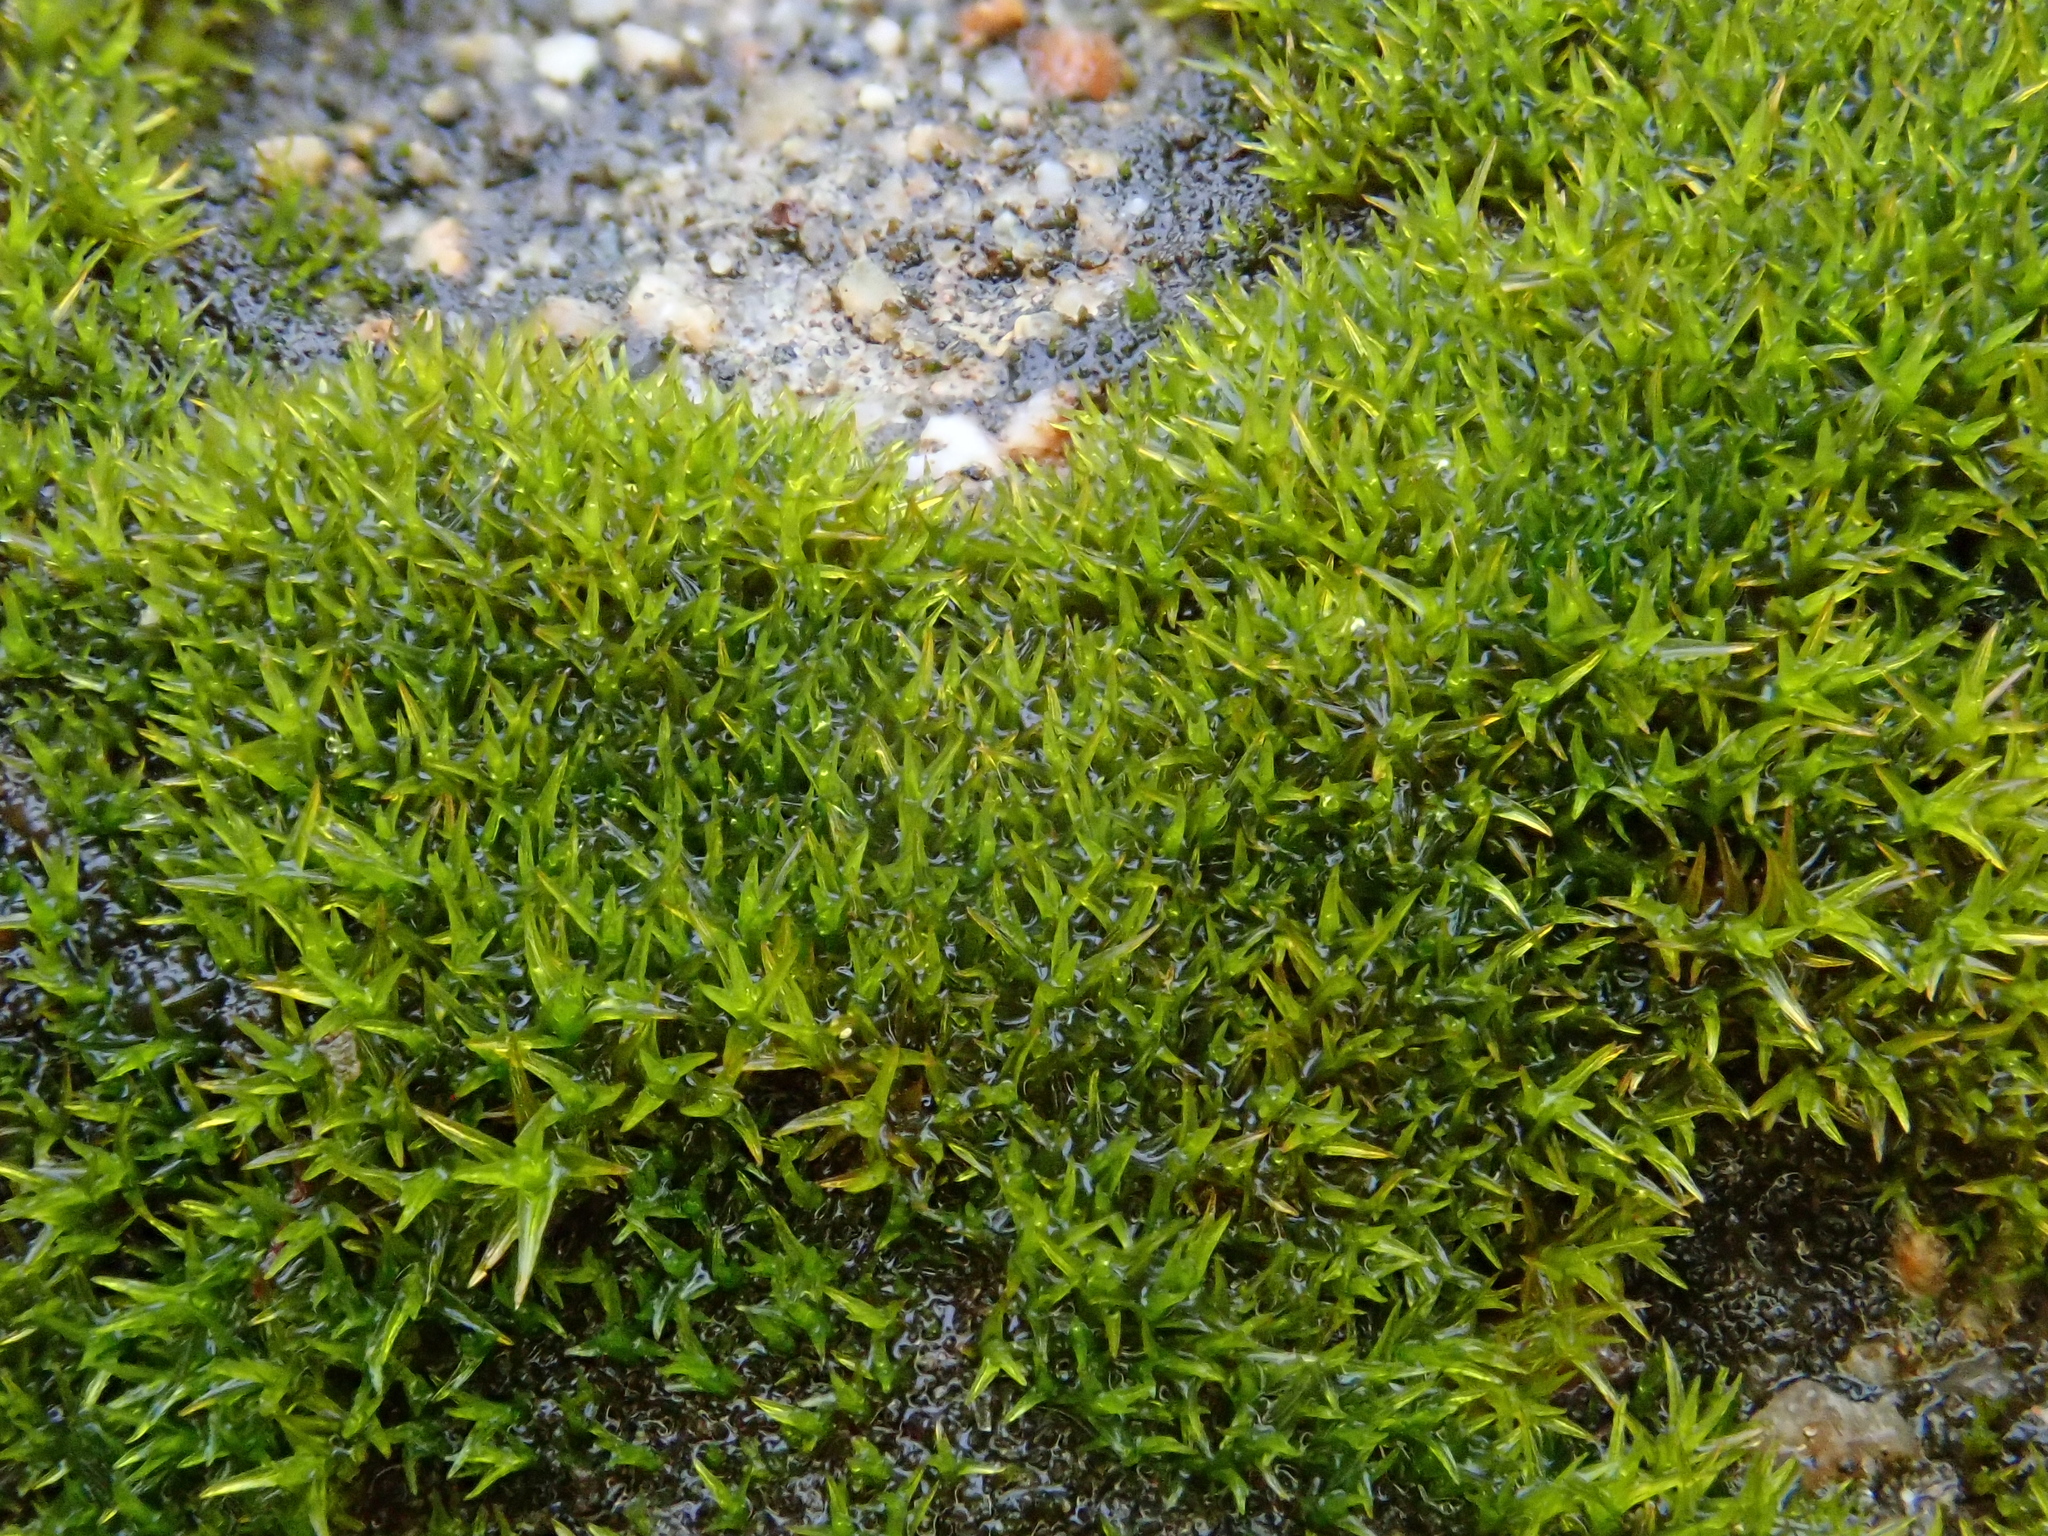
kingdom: Plantae
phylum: Bryophyta
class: Bryopsida
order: Pottiales
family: Pottiaceae
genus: Didymodon
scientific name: Didymodon rigidulus
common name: Rigid beard-moss
